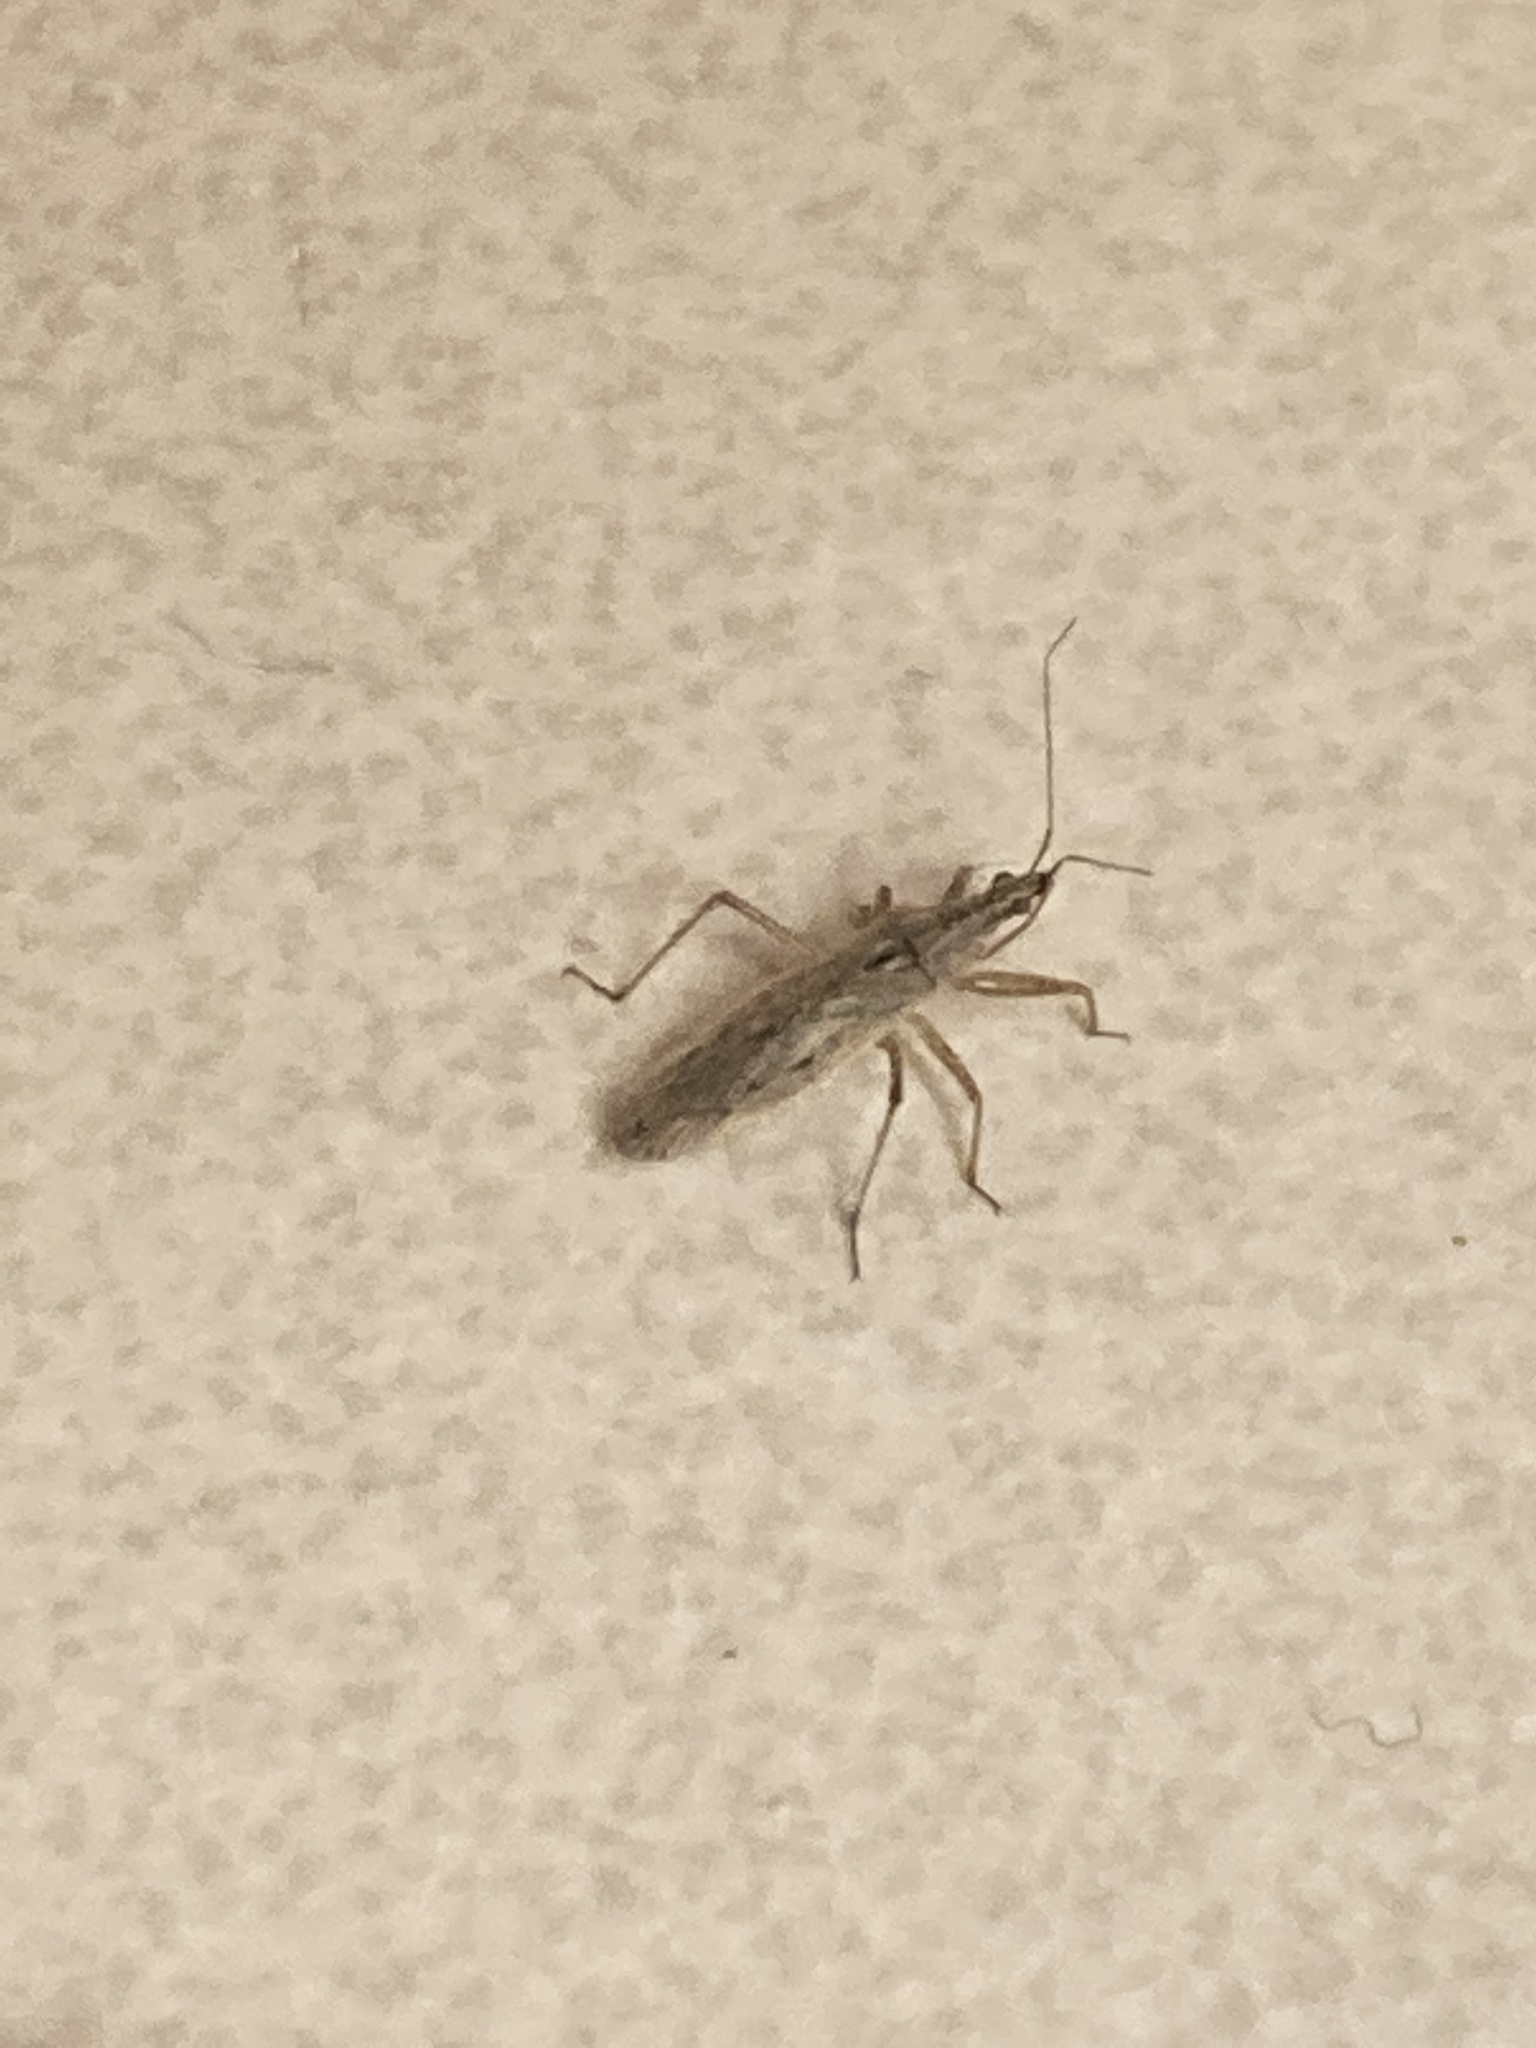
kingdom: Animalia
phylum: Arthropoda
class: Insecta
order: Hemiptera
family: Nabidae
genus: Nabis
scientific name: Nabis americoferus
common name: Common damsel bug
